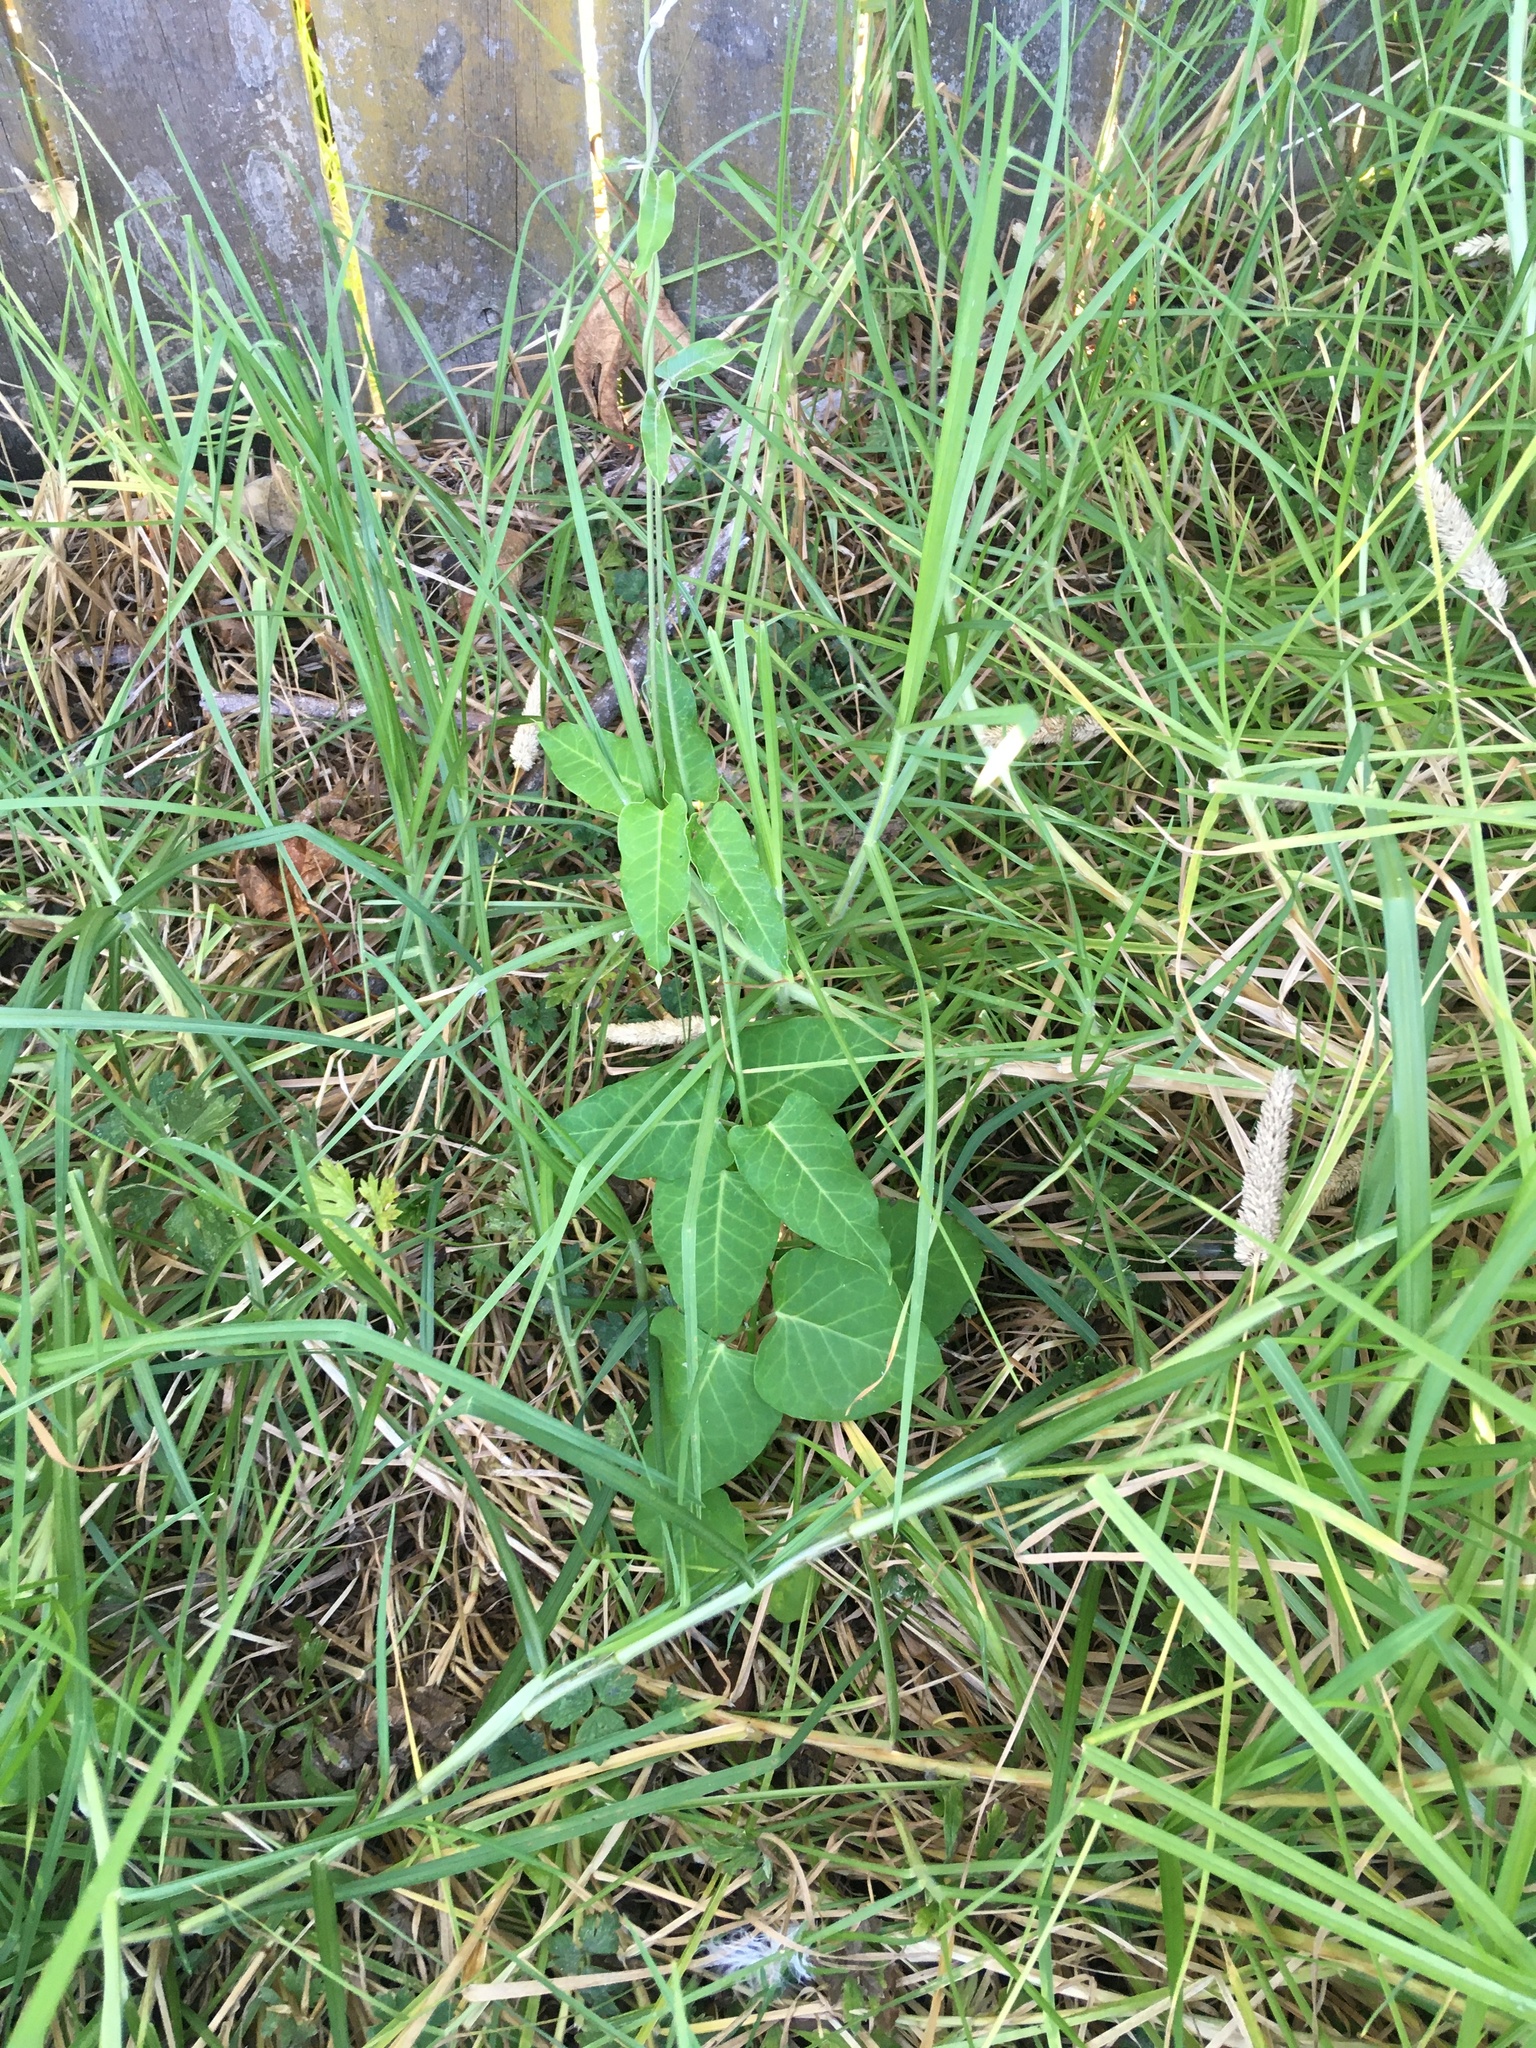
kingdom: Plantae
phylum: Tracheophyta
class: Magnoliopsida
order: Gentianales
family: Apocynaceae
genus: Araujia
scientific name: Araujia sericifera
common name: White bladderflower
